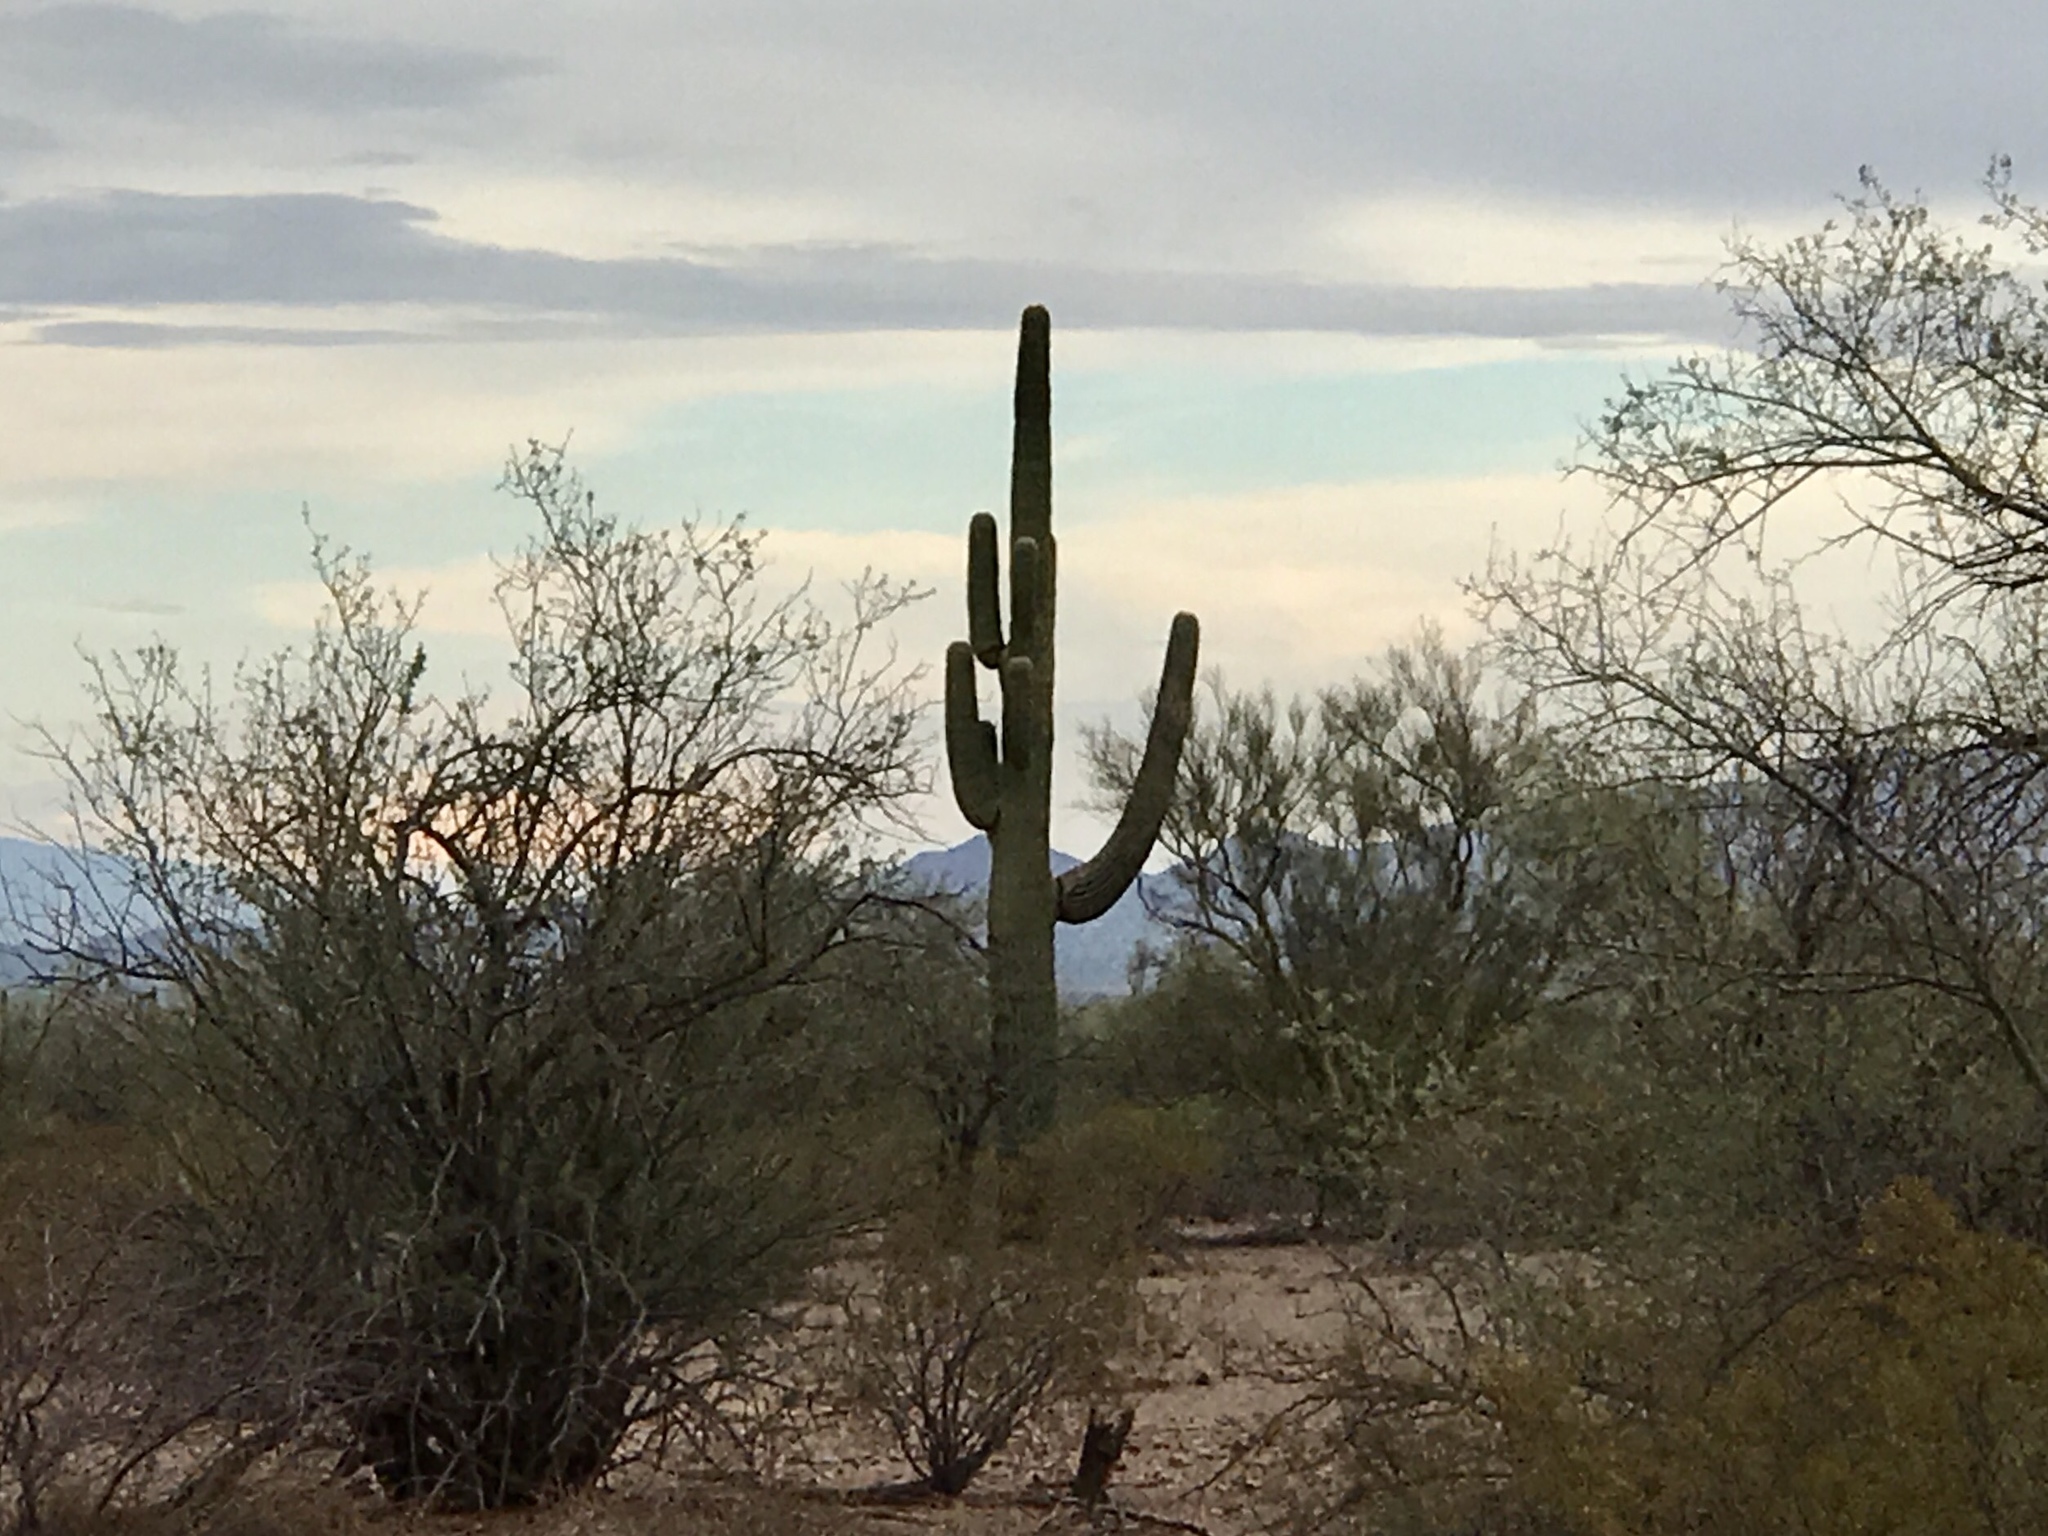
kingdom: Plantae
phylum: Tracheophyta
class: Magnoliopsida
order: Caryophyllales
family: Cactaceae
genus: Carnegiea
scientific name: Carnegiea gigantea
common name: Saguaro
